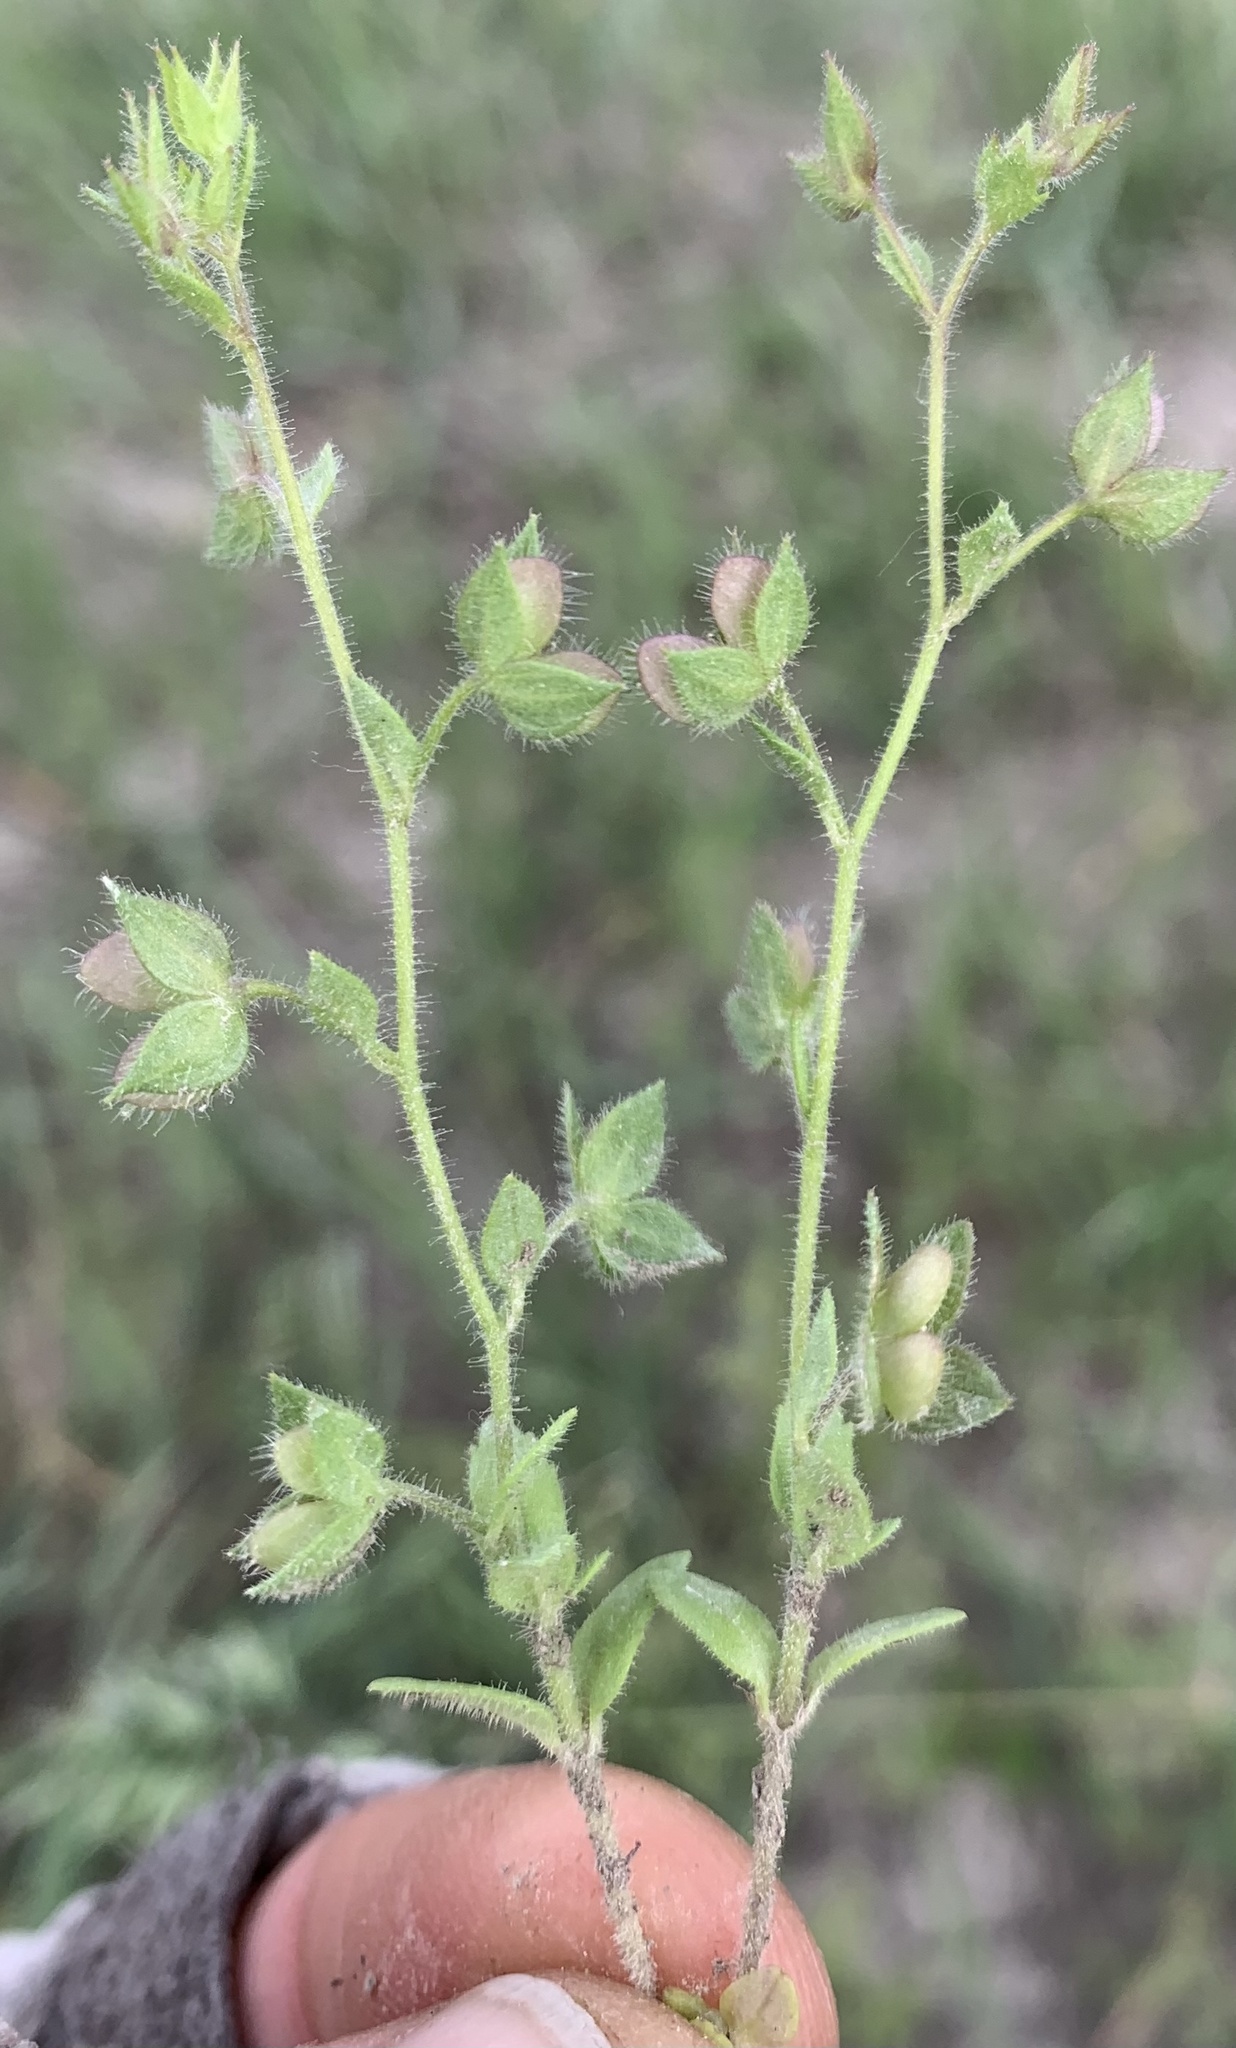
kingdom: Plantae
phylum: Tracheophyta
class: Magnoliopsida
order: Lamiales
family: Plantaginaceae
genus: Veronica
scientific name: Veronica argute-serrata
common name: Sawtooth speedwell
